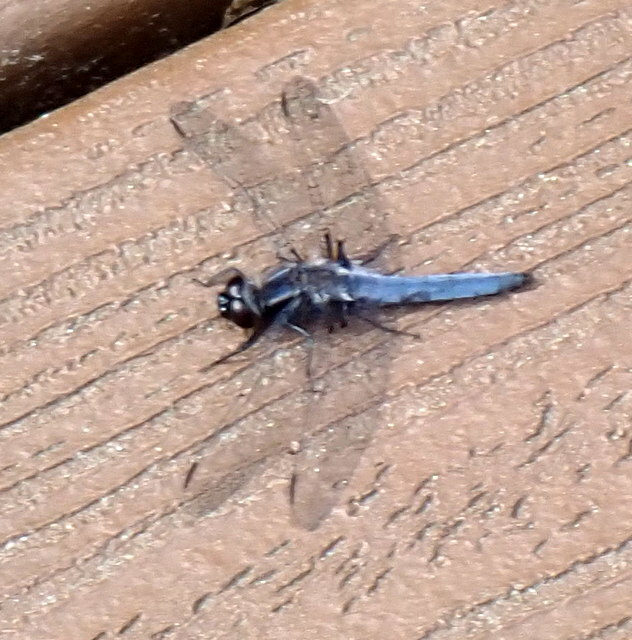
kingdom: Animalia
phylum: Arthropoda
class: Insecta
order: Odonata
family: Libellulidae
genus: Ladona
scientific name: Ladona deplanata
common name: Blue corporal
